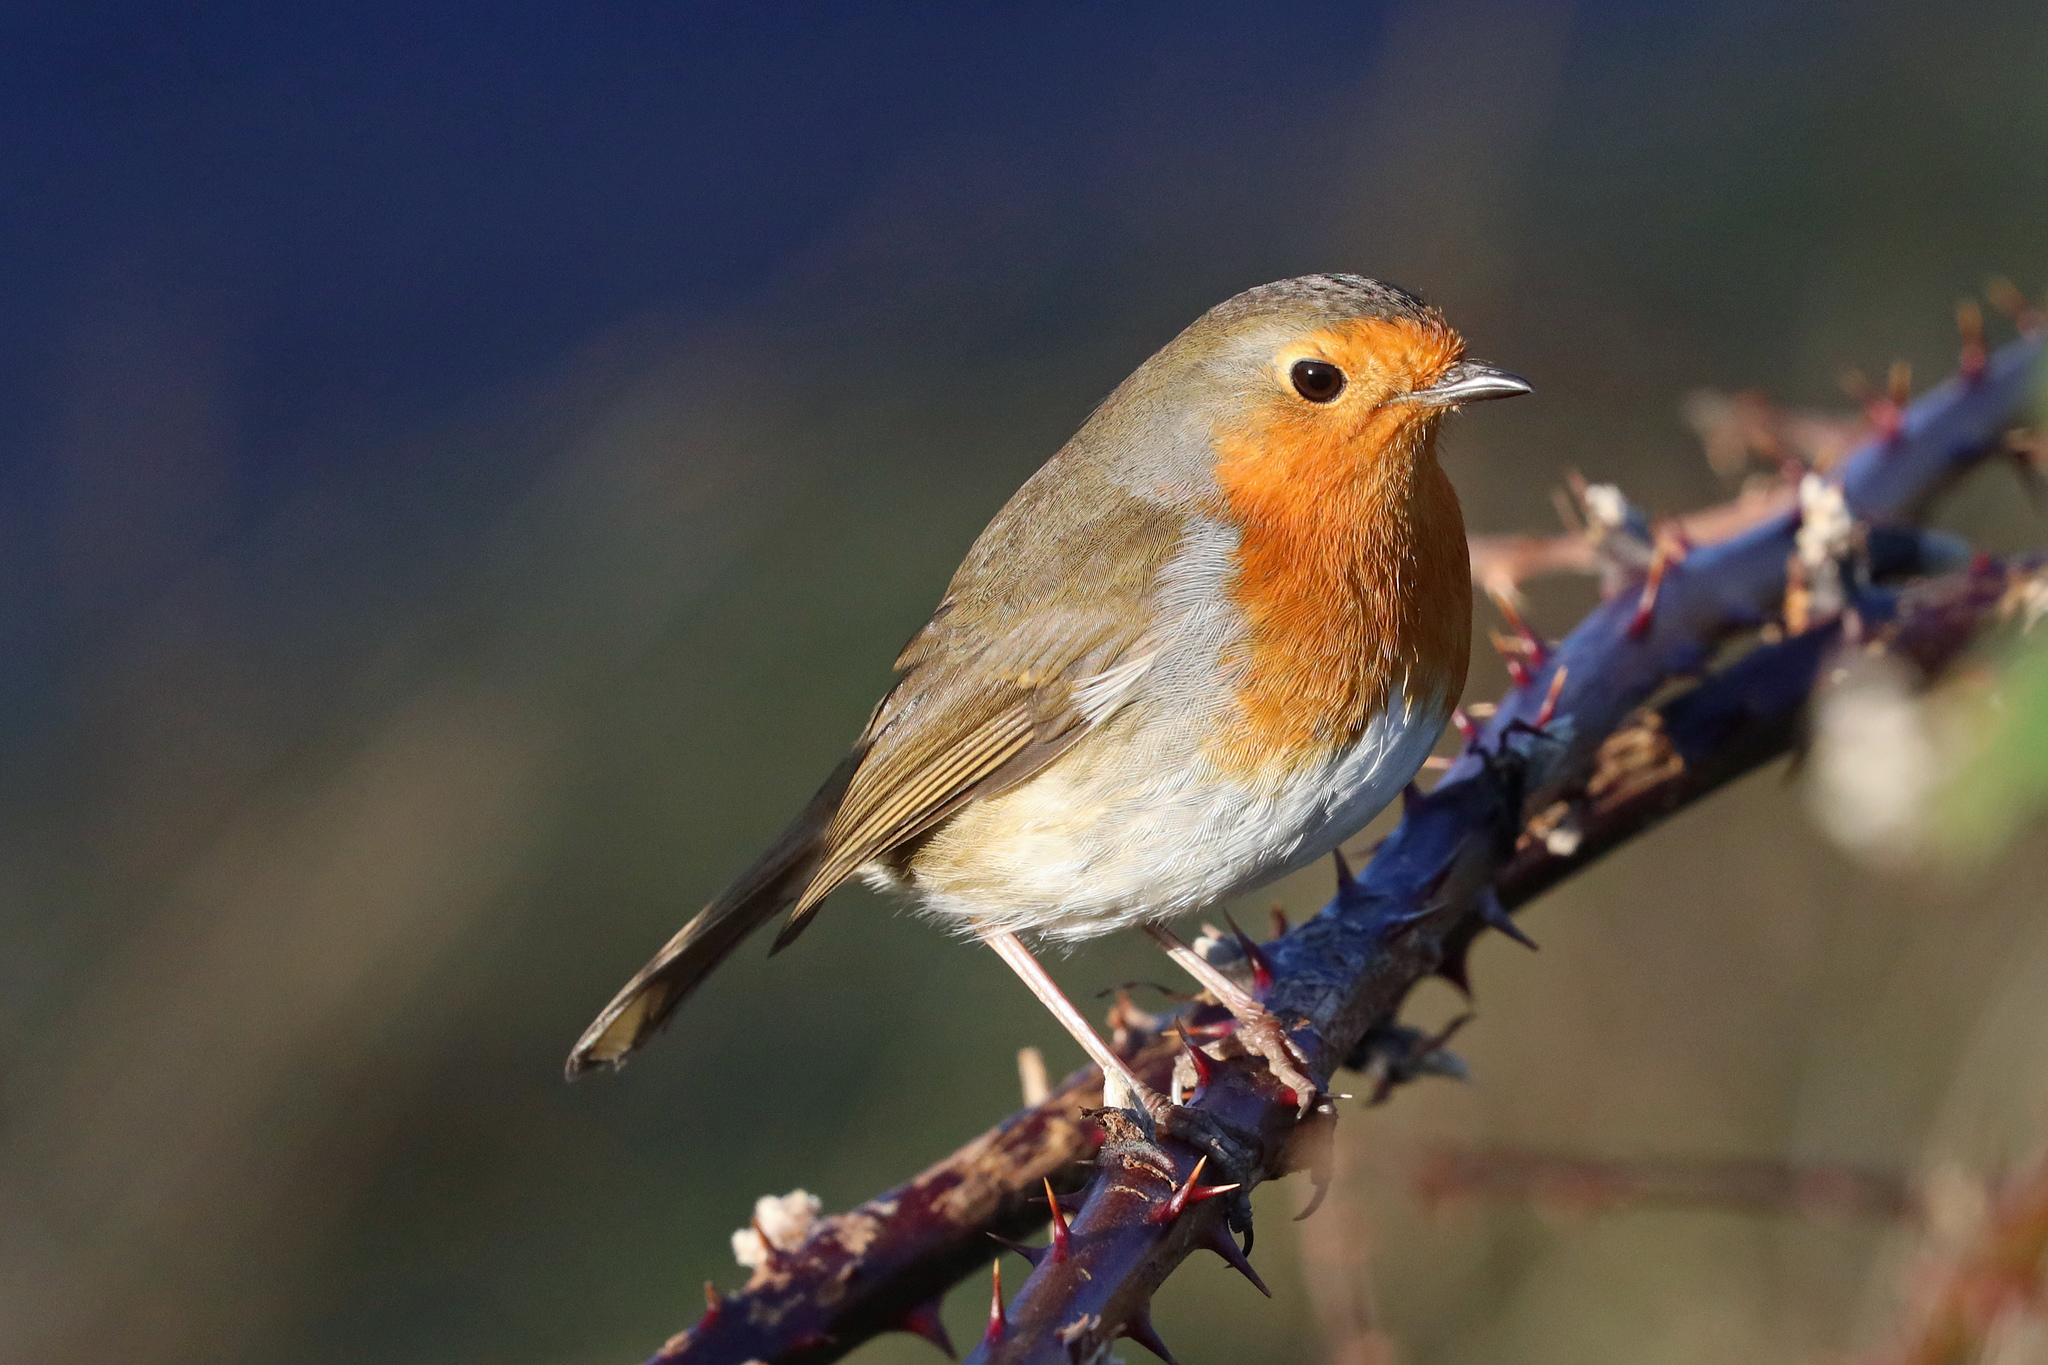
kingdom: Animalia
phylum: Chordata
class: Aves
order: Passeriformes
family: Muscicapidae
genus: Erithacus
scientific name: Erithacus rubecula
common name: European robin
